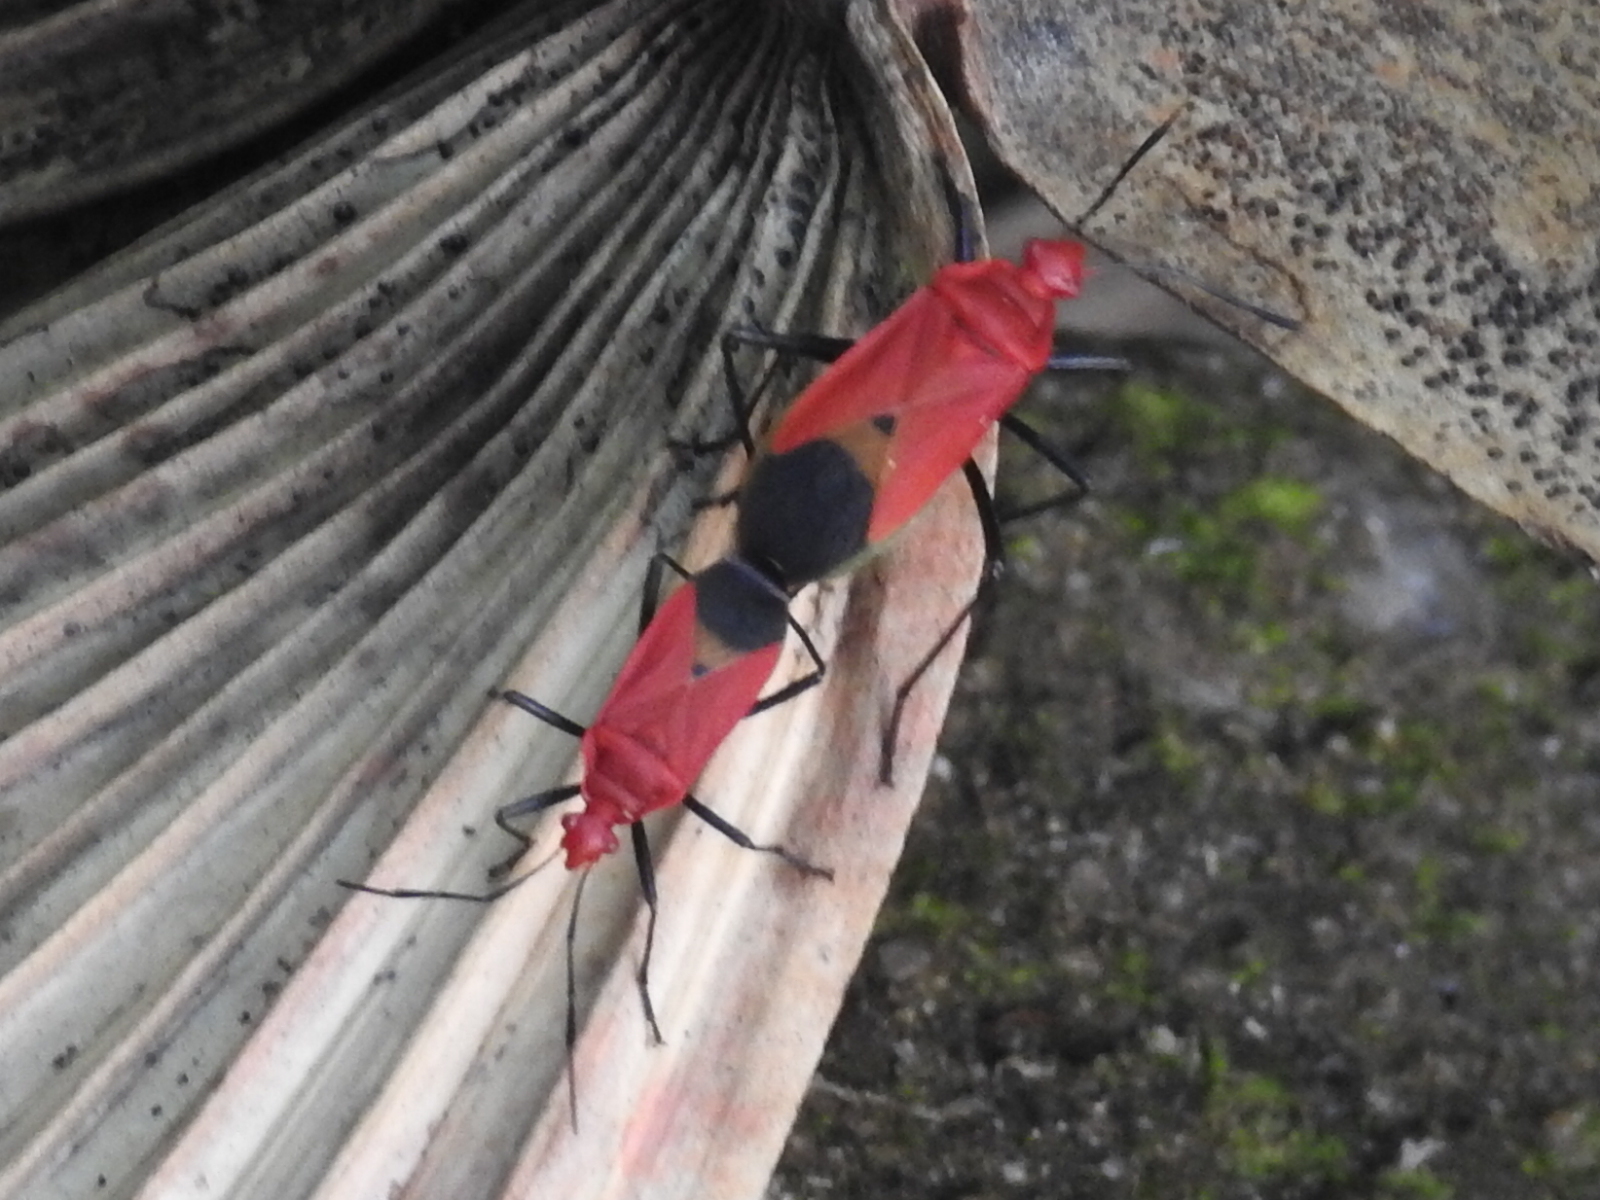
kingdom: Animalia
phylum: Arthropoda
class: Insecta
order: Hemiptera
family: Pyrrhocoridae
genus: Dindymus
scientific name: Dindymus
